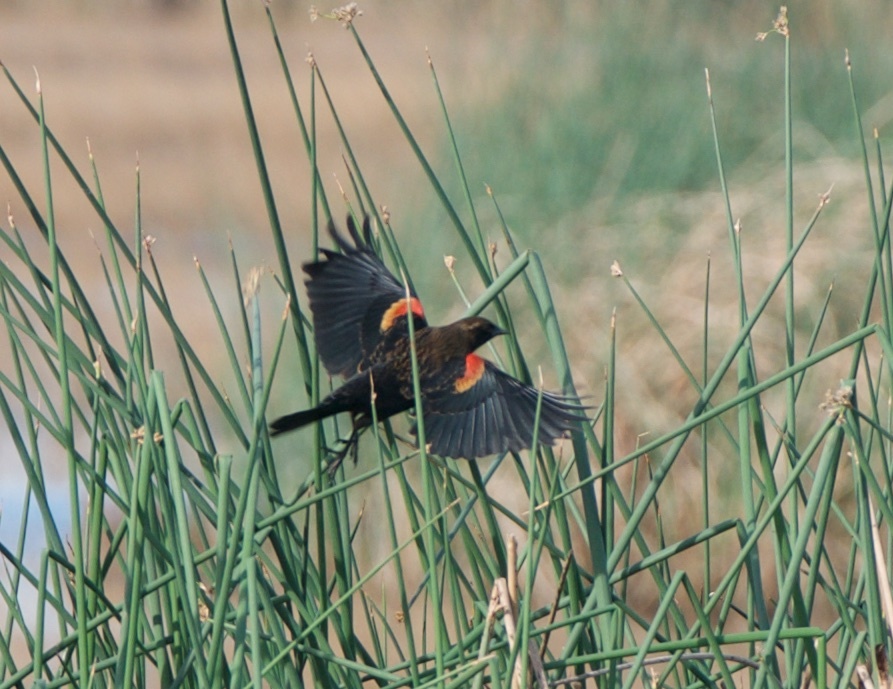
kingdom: Animalia
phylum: Chordata
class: Aves
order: Passeriformes
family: Icteridae
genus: Agelaius
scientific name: Agelaius phoeniceus
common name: Red-winged blackbird
